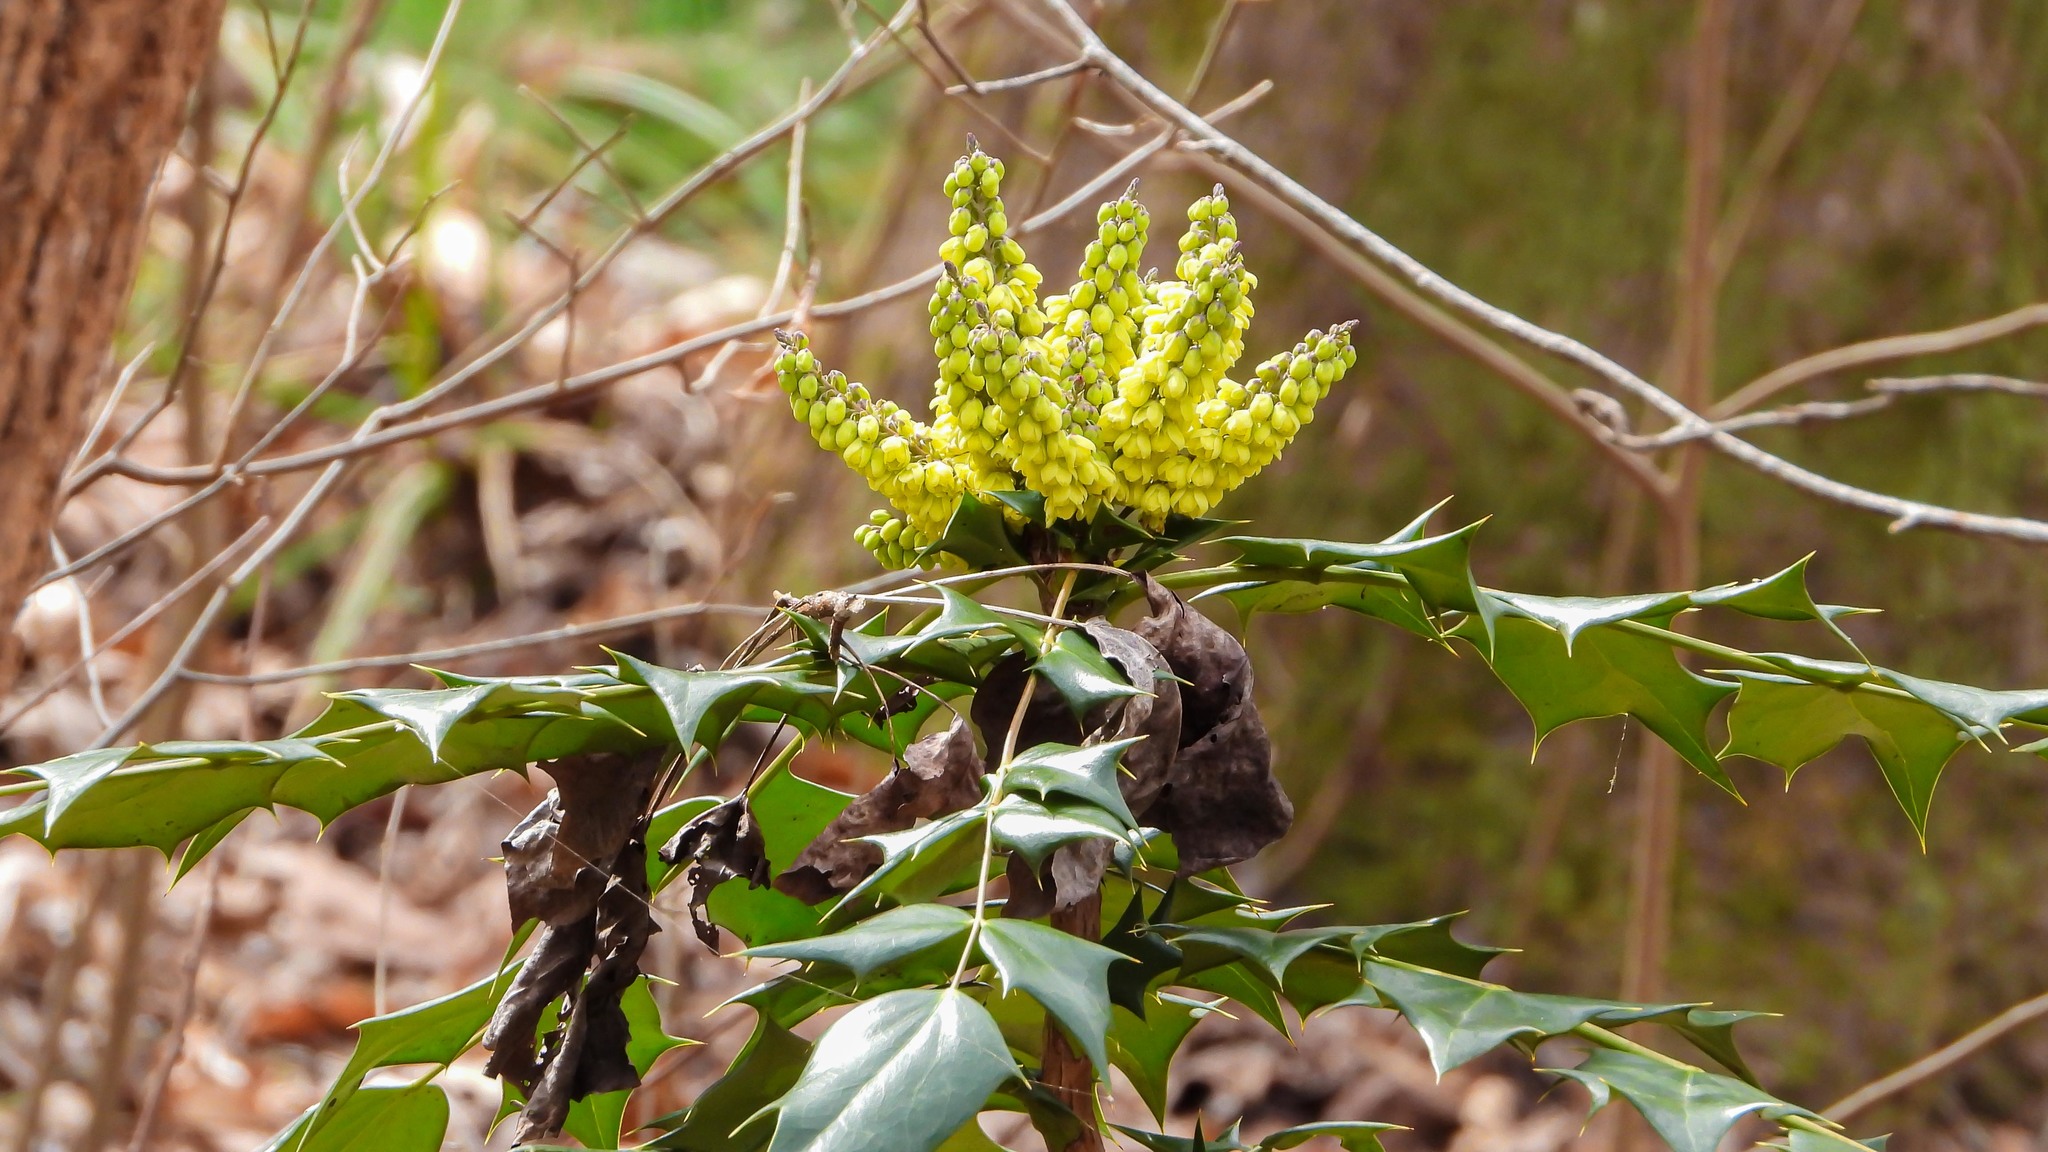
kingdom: Plantae
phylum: Tracheophyta
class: Magnoliopsida
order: Ranunculales
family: Berberidaceae
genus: Mahonia
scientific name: Mahonia bealei
